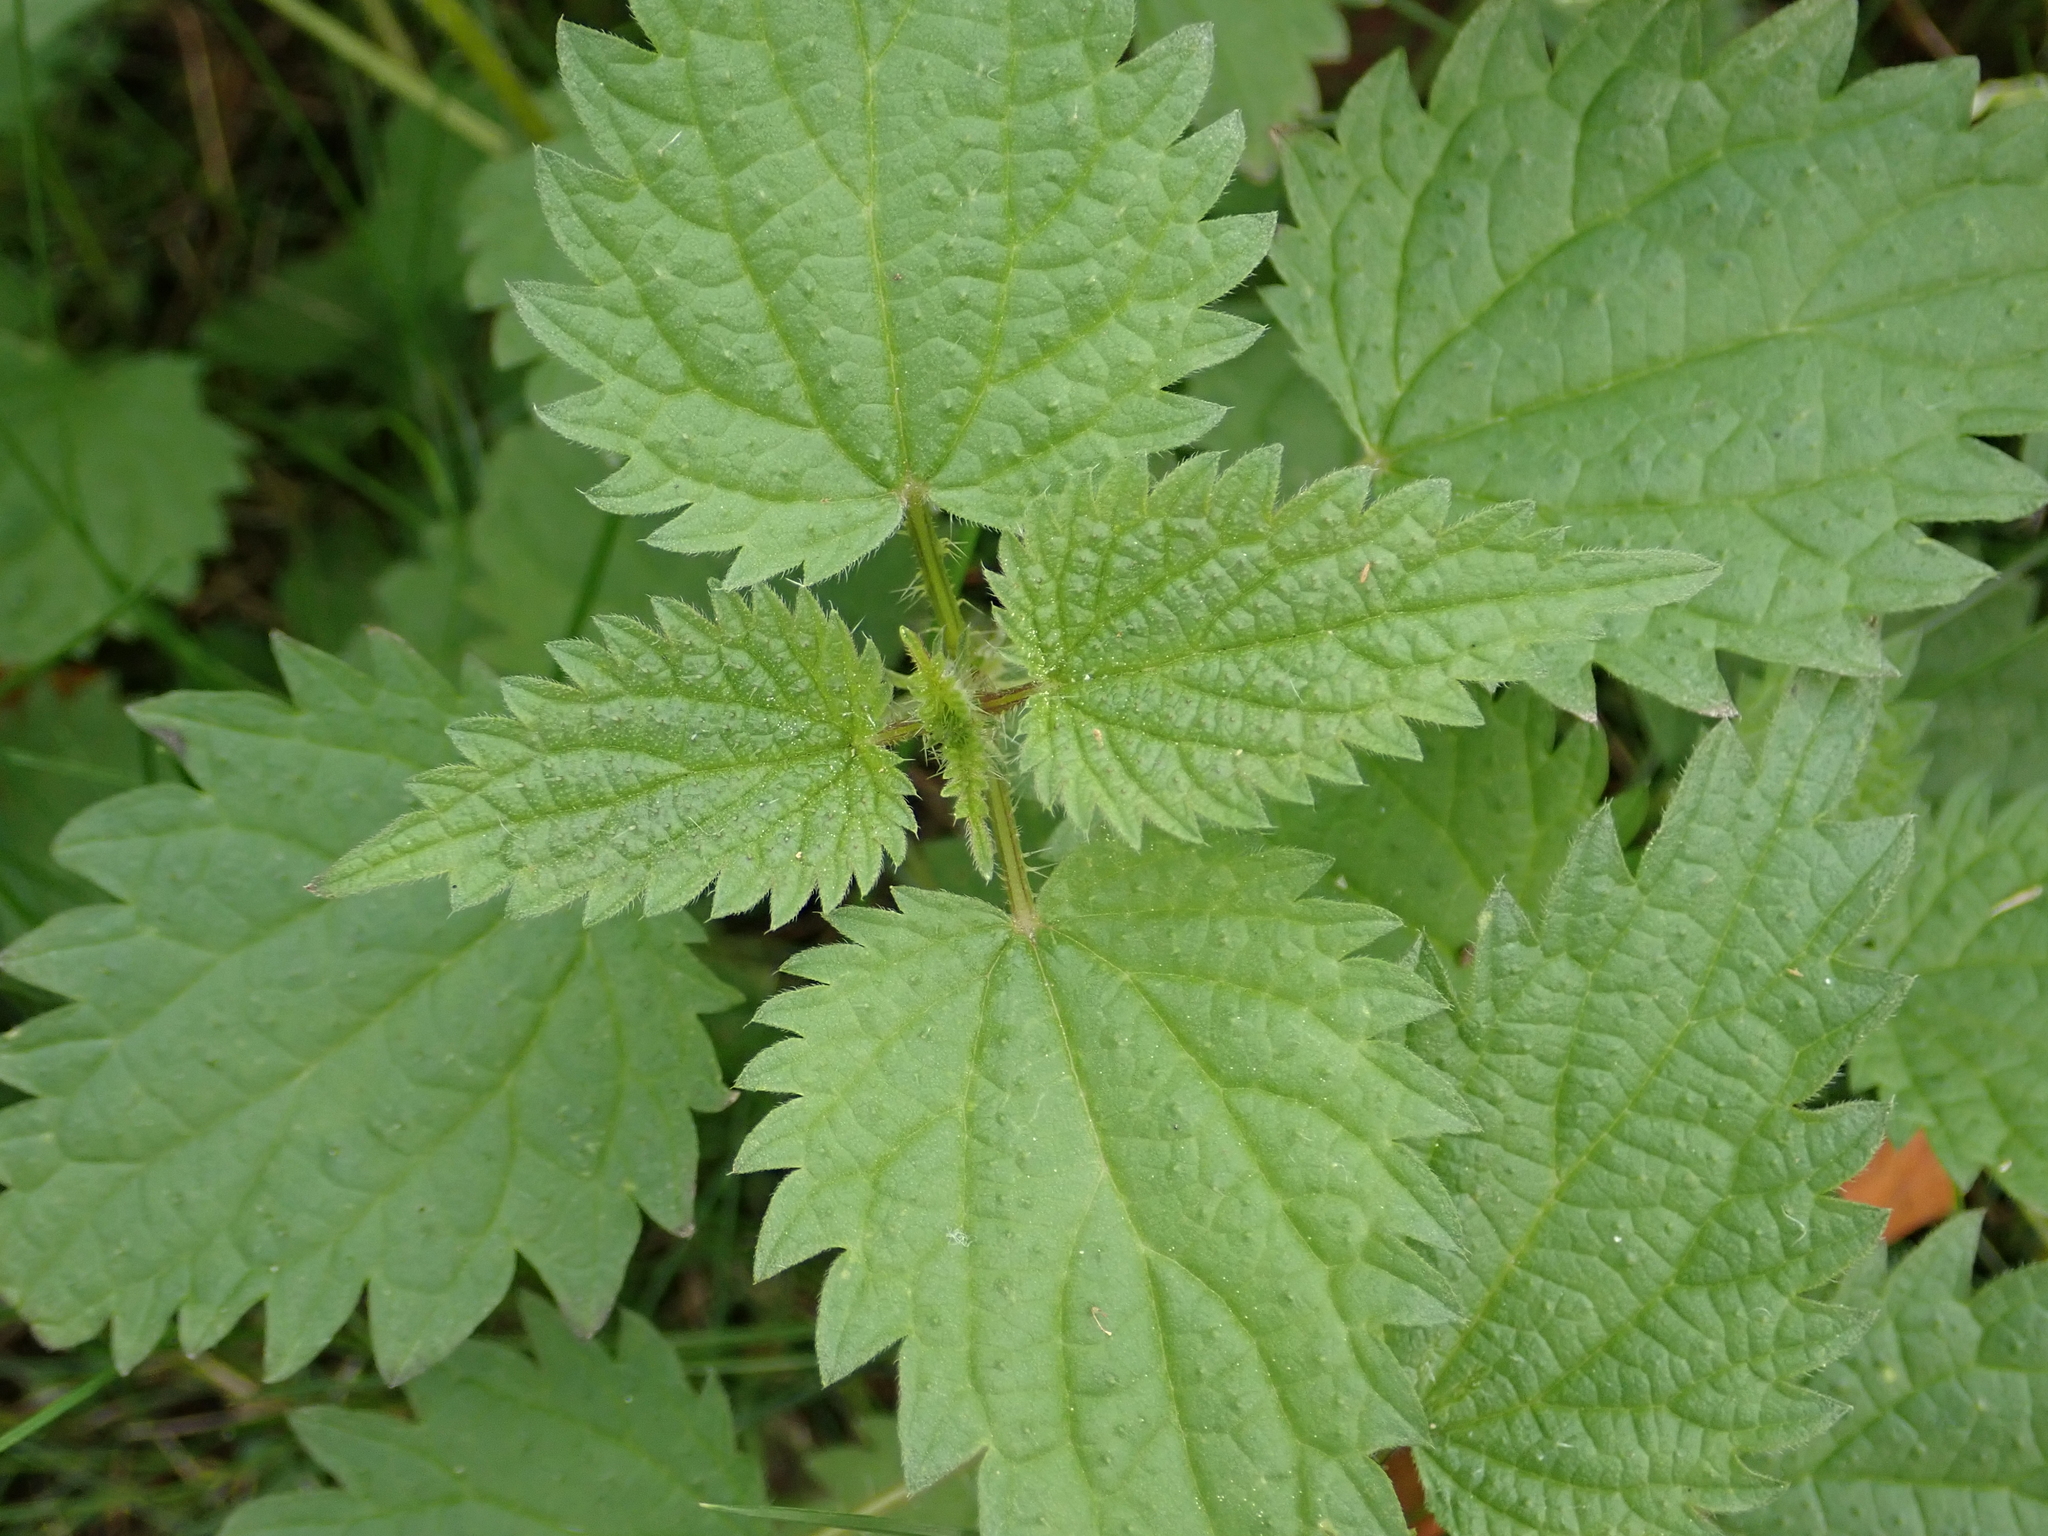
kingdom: Plantae
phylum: Tracheophyta
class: Magnoliopsida
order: Rosales
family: Urticaceae
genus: Urtica
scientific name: Urtica dioica
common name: Common nettle
